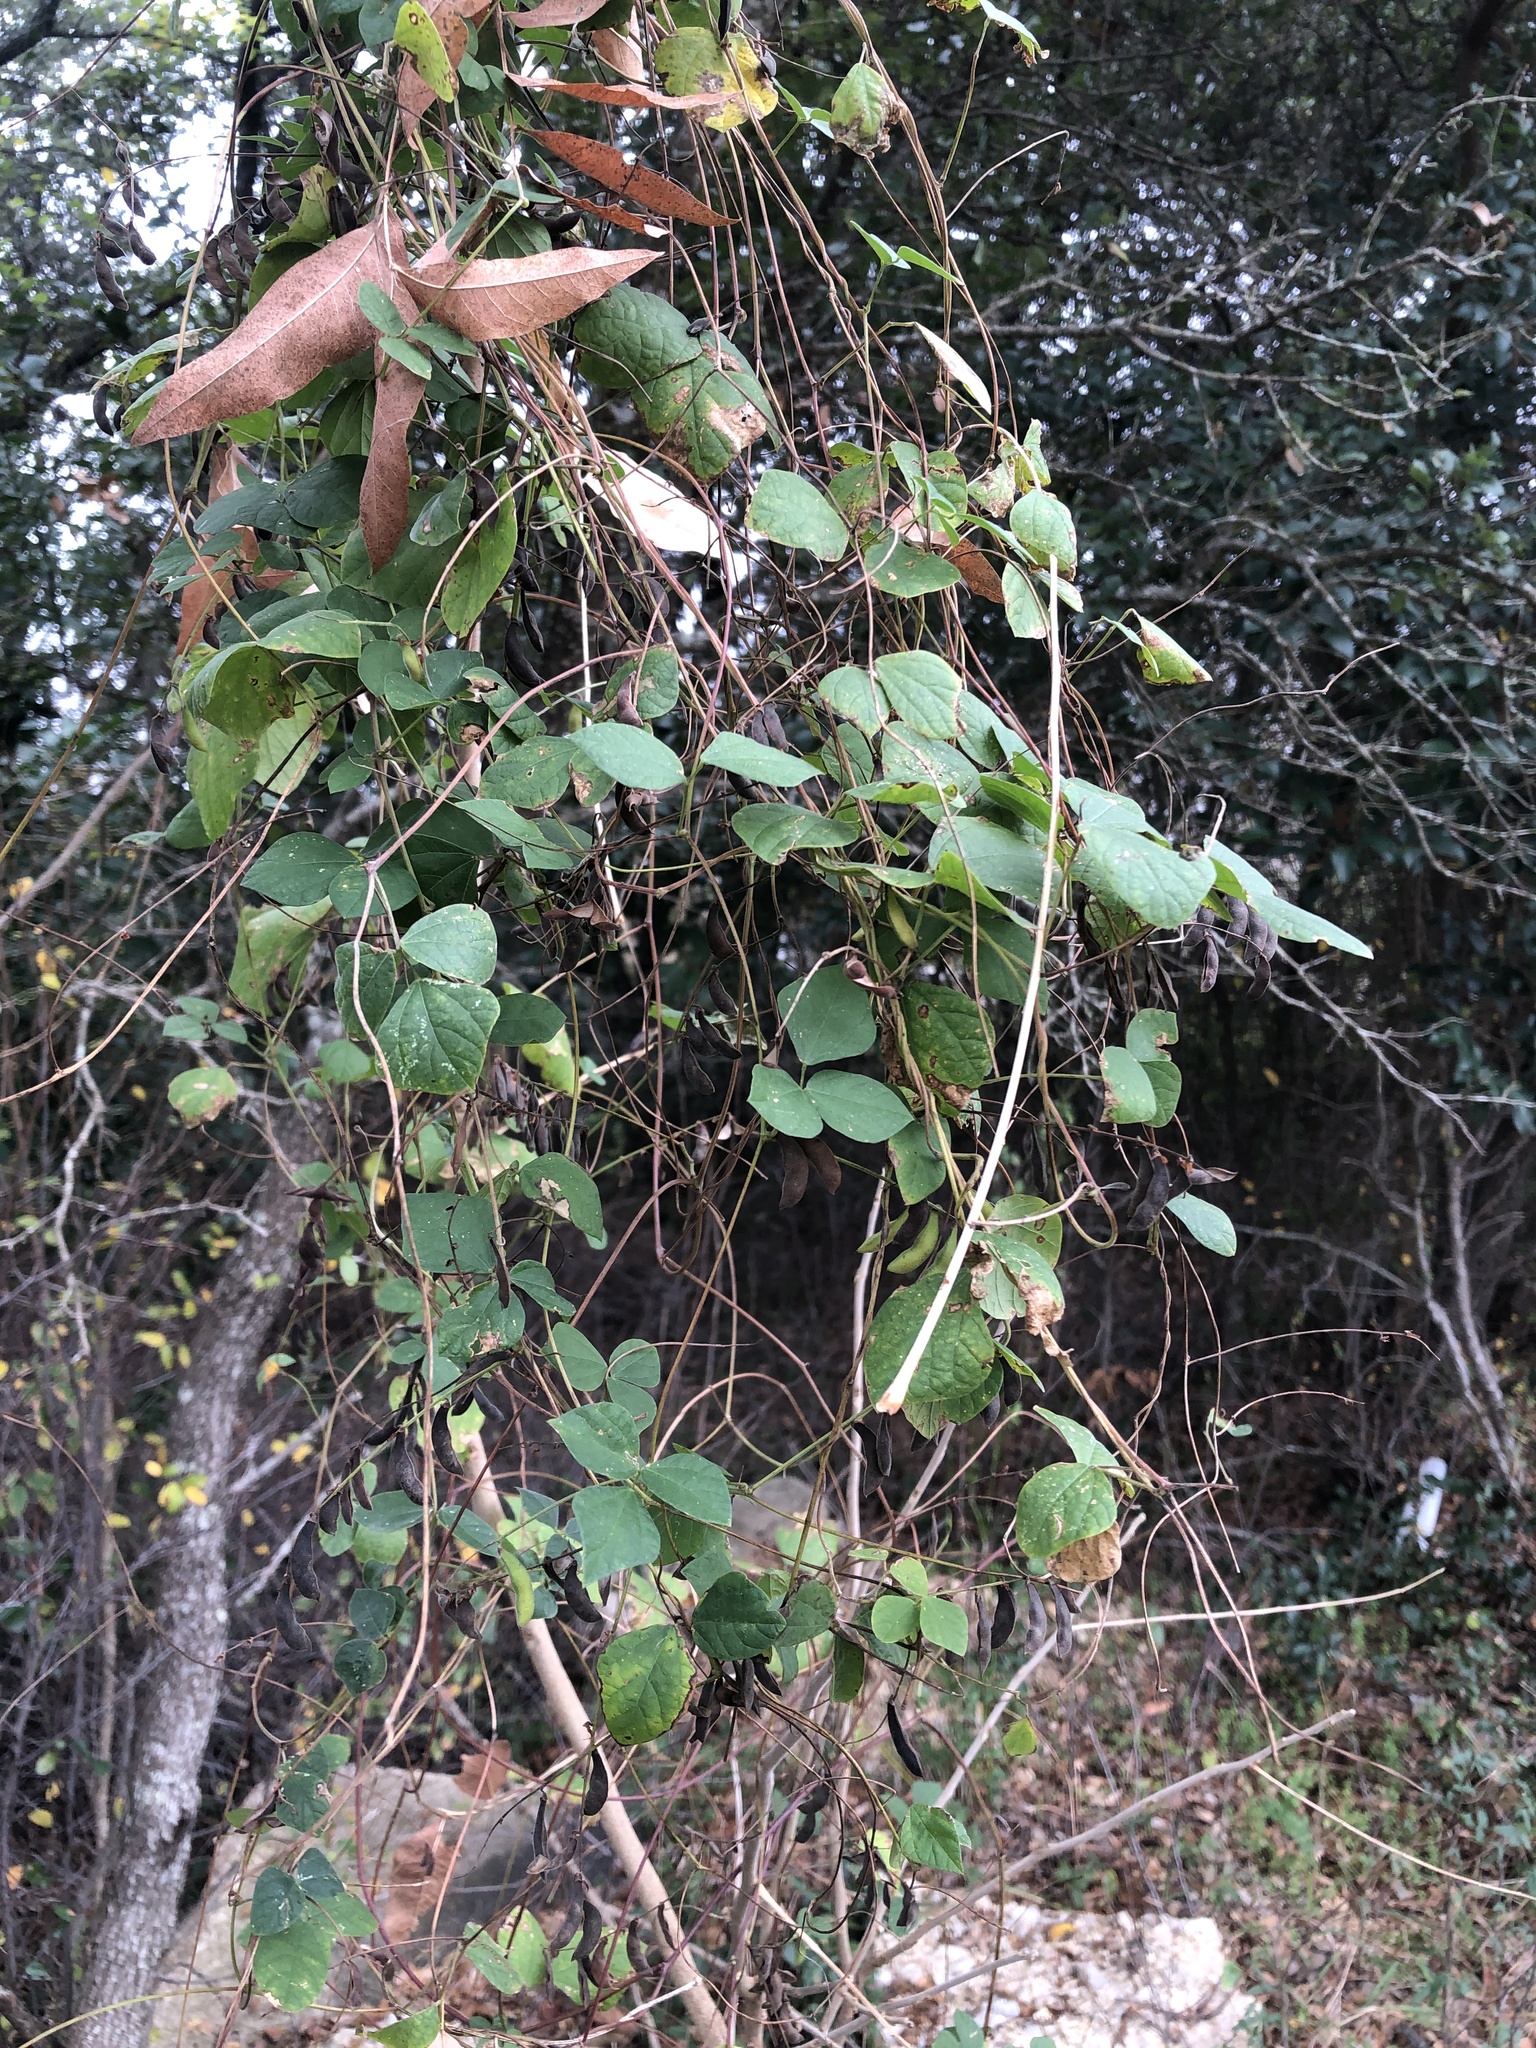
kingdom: Plantae
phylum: Tracheophyta
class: Magnoliopsida
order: Fabales
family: Fabaceae
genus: Rhynchosia
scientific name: Rhynchosia minima
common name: Least snoutbean
